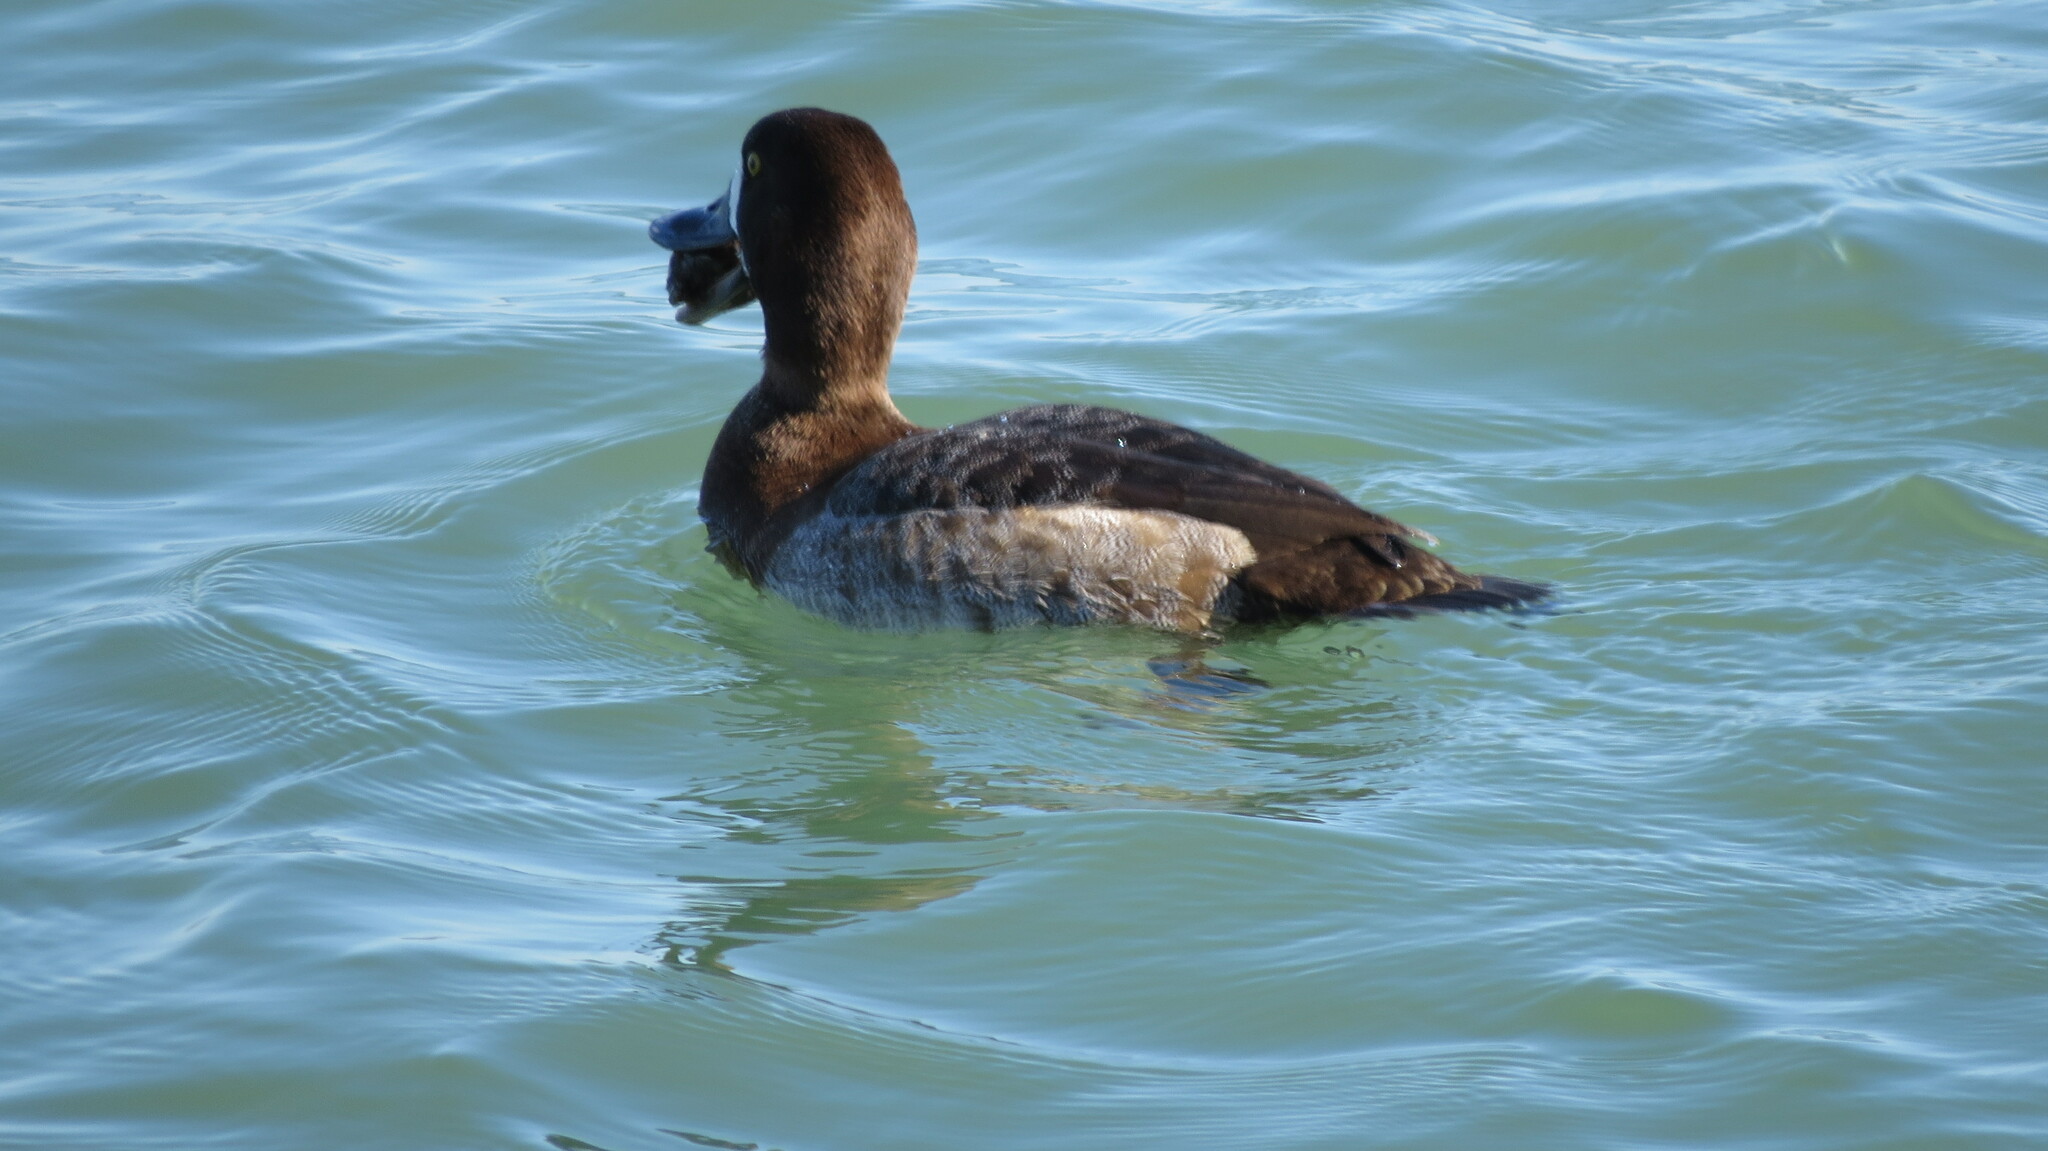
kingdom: Animalia
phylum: Chordata
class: Aves
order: Anseriformes
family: Anatidae
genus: Aythya
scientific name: Aythya marila
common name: Greater scaup
